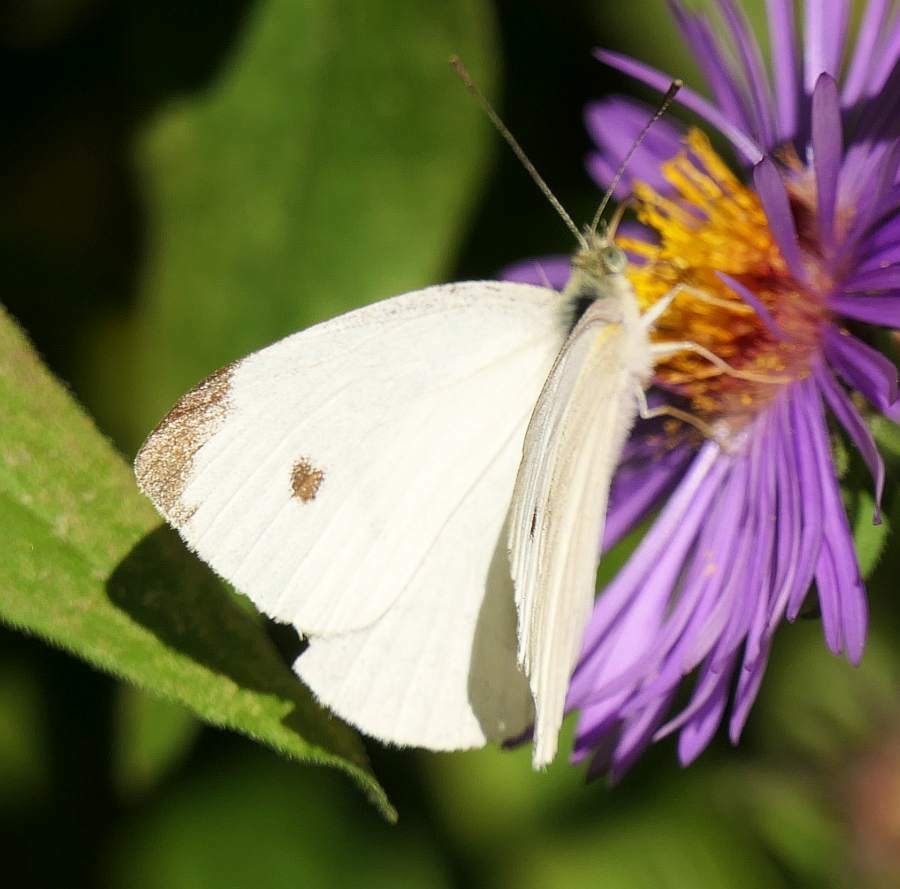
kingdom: Animalia
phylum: Arthropoda
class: Insecta
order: Lepidoptera
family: Pieridae
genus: Pieris
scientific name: Pieris rapae
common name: Small white
